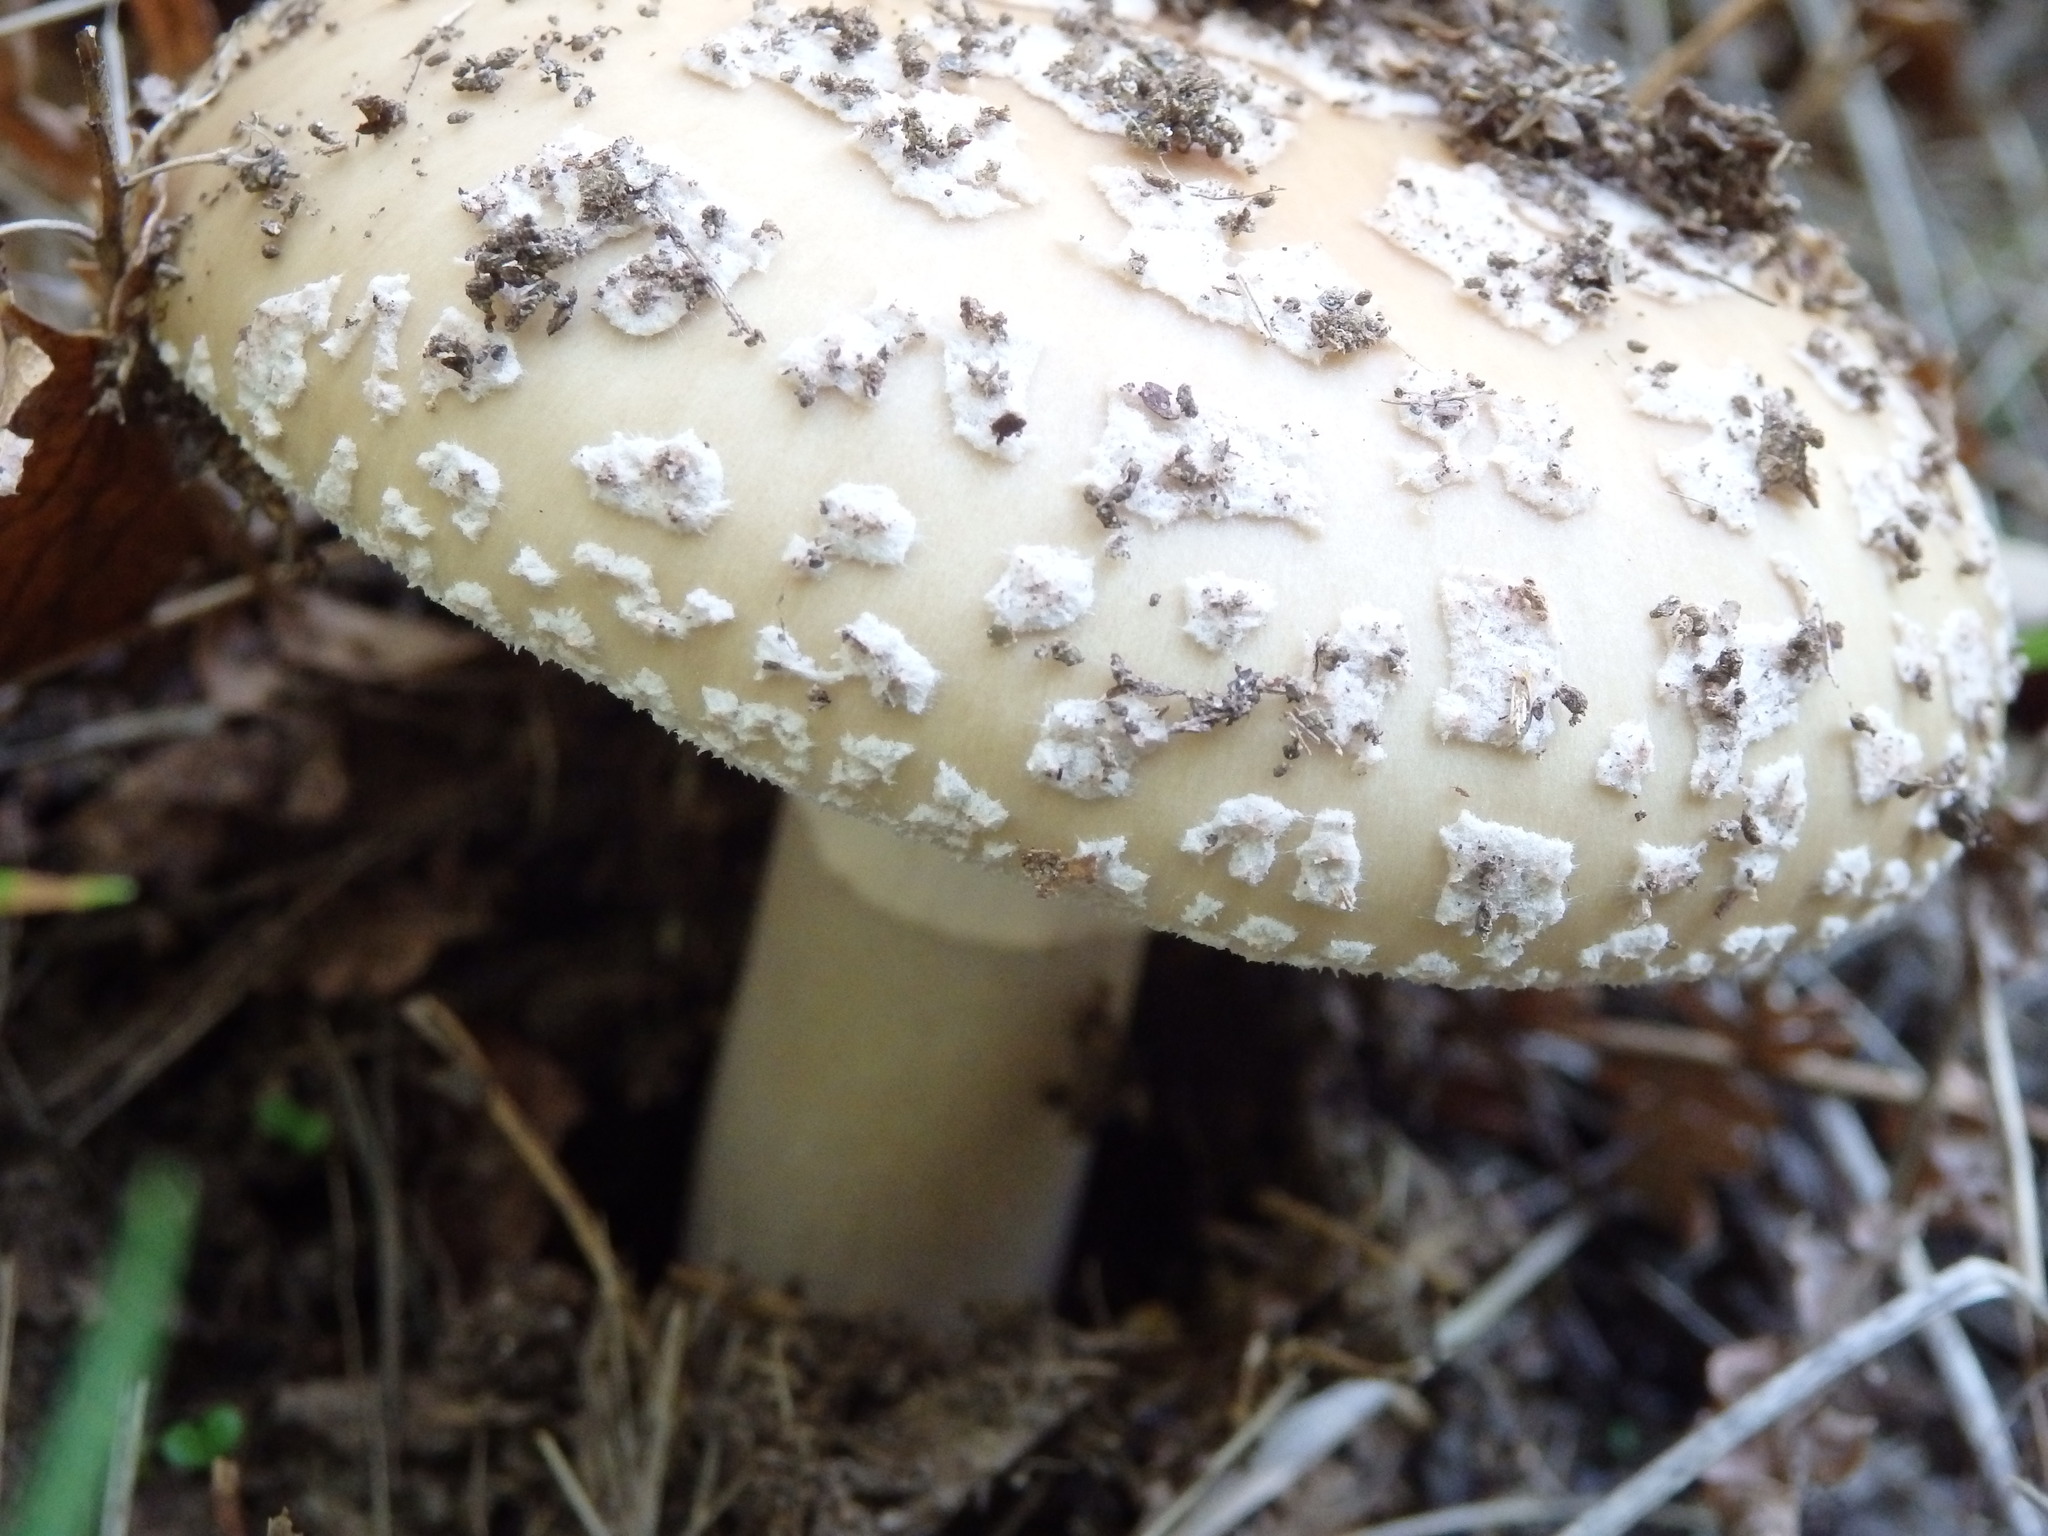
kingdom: Fungi
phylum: Basidiomycota
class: Agaricomycetes
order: Agaricales
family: Amanitaceae
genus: Amanita
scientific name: Amanita rubescens
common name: Blusher
